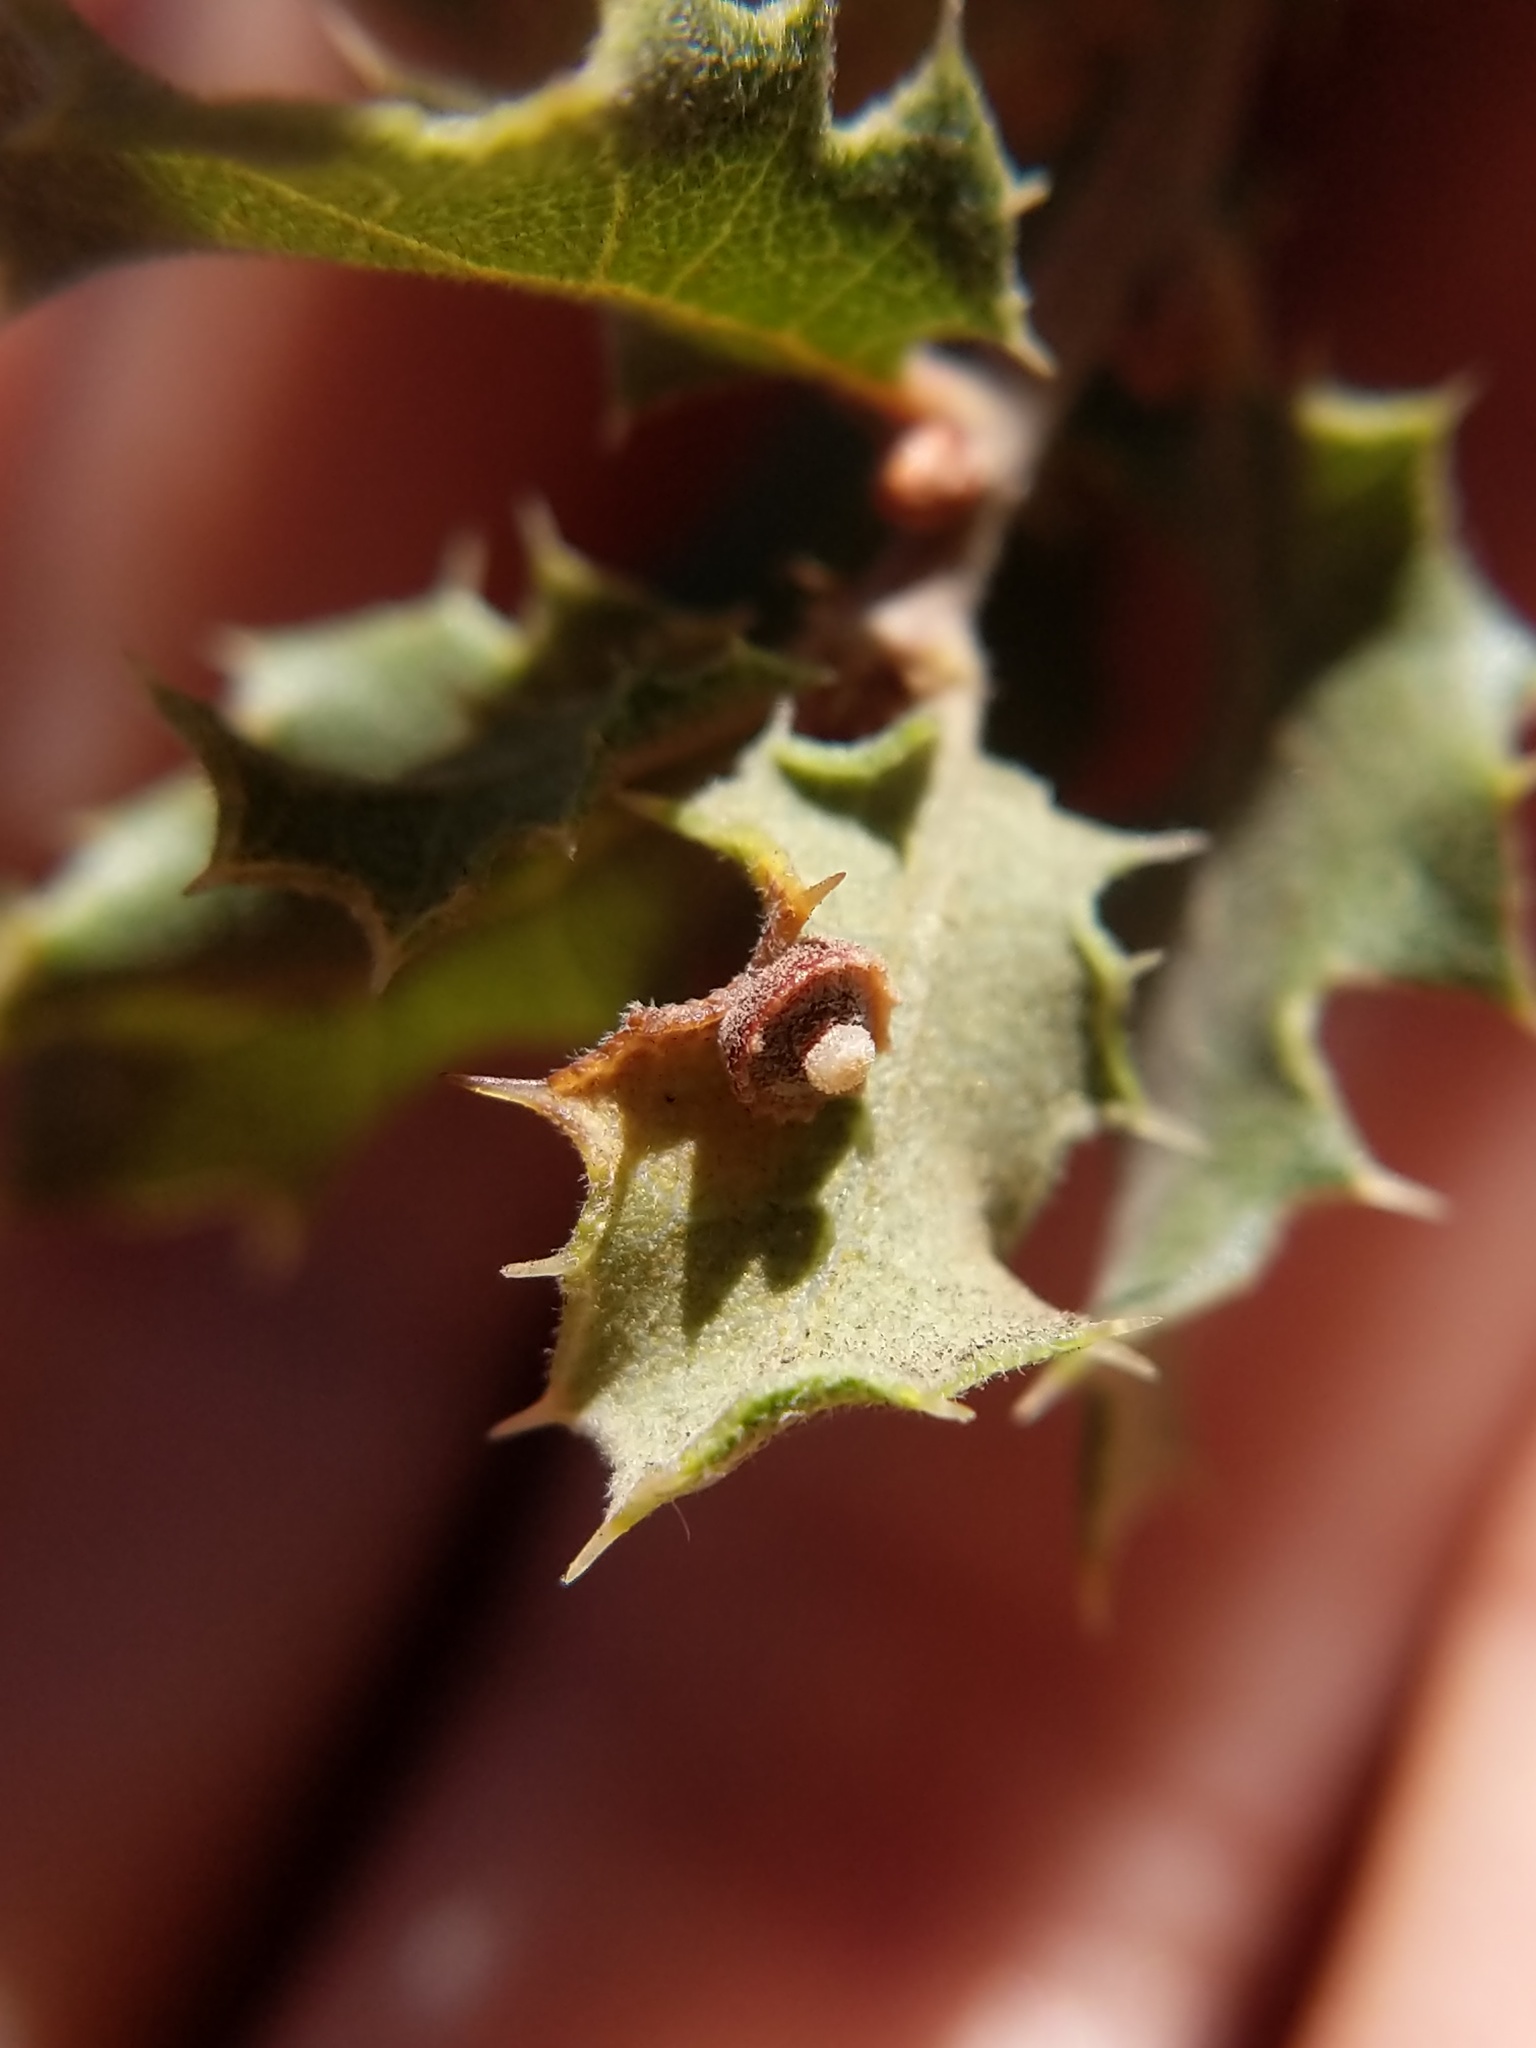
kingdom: Animalia
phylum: Arthropoda
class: Insecta
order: Hymenoptera
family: Cynipidae
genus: Andricus
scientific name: Andricus
